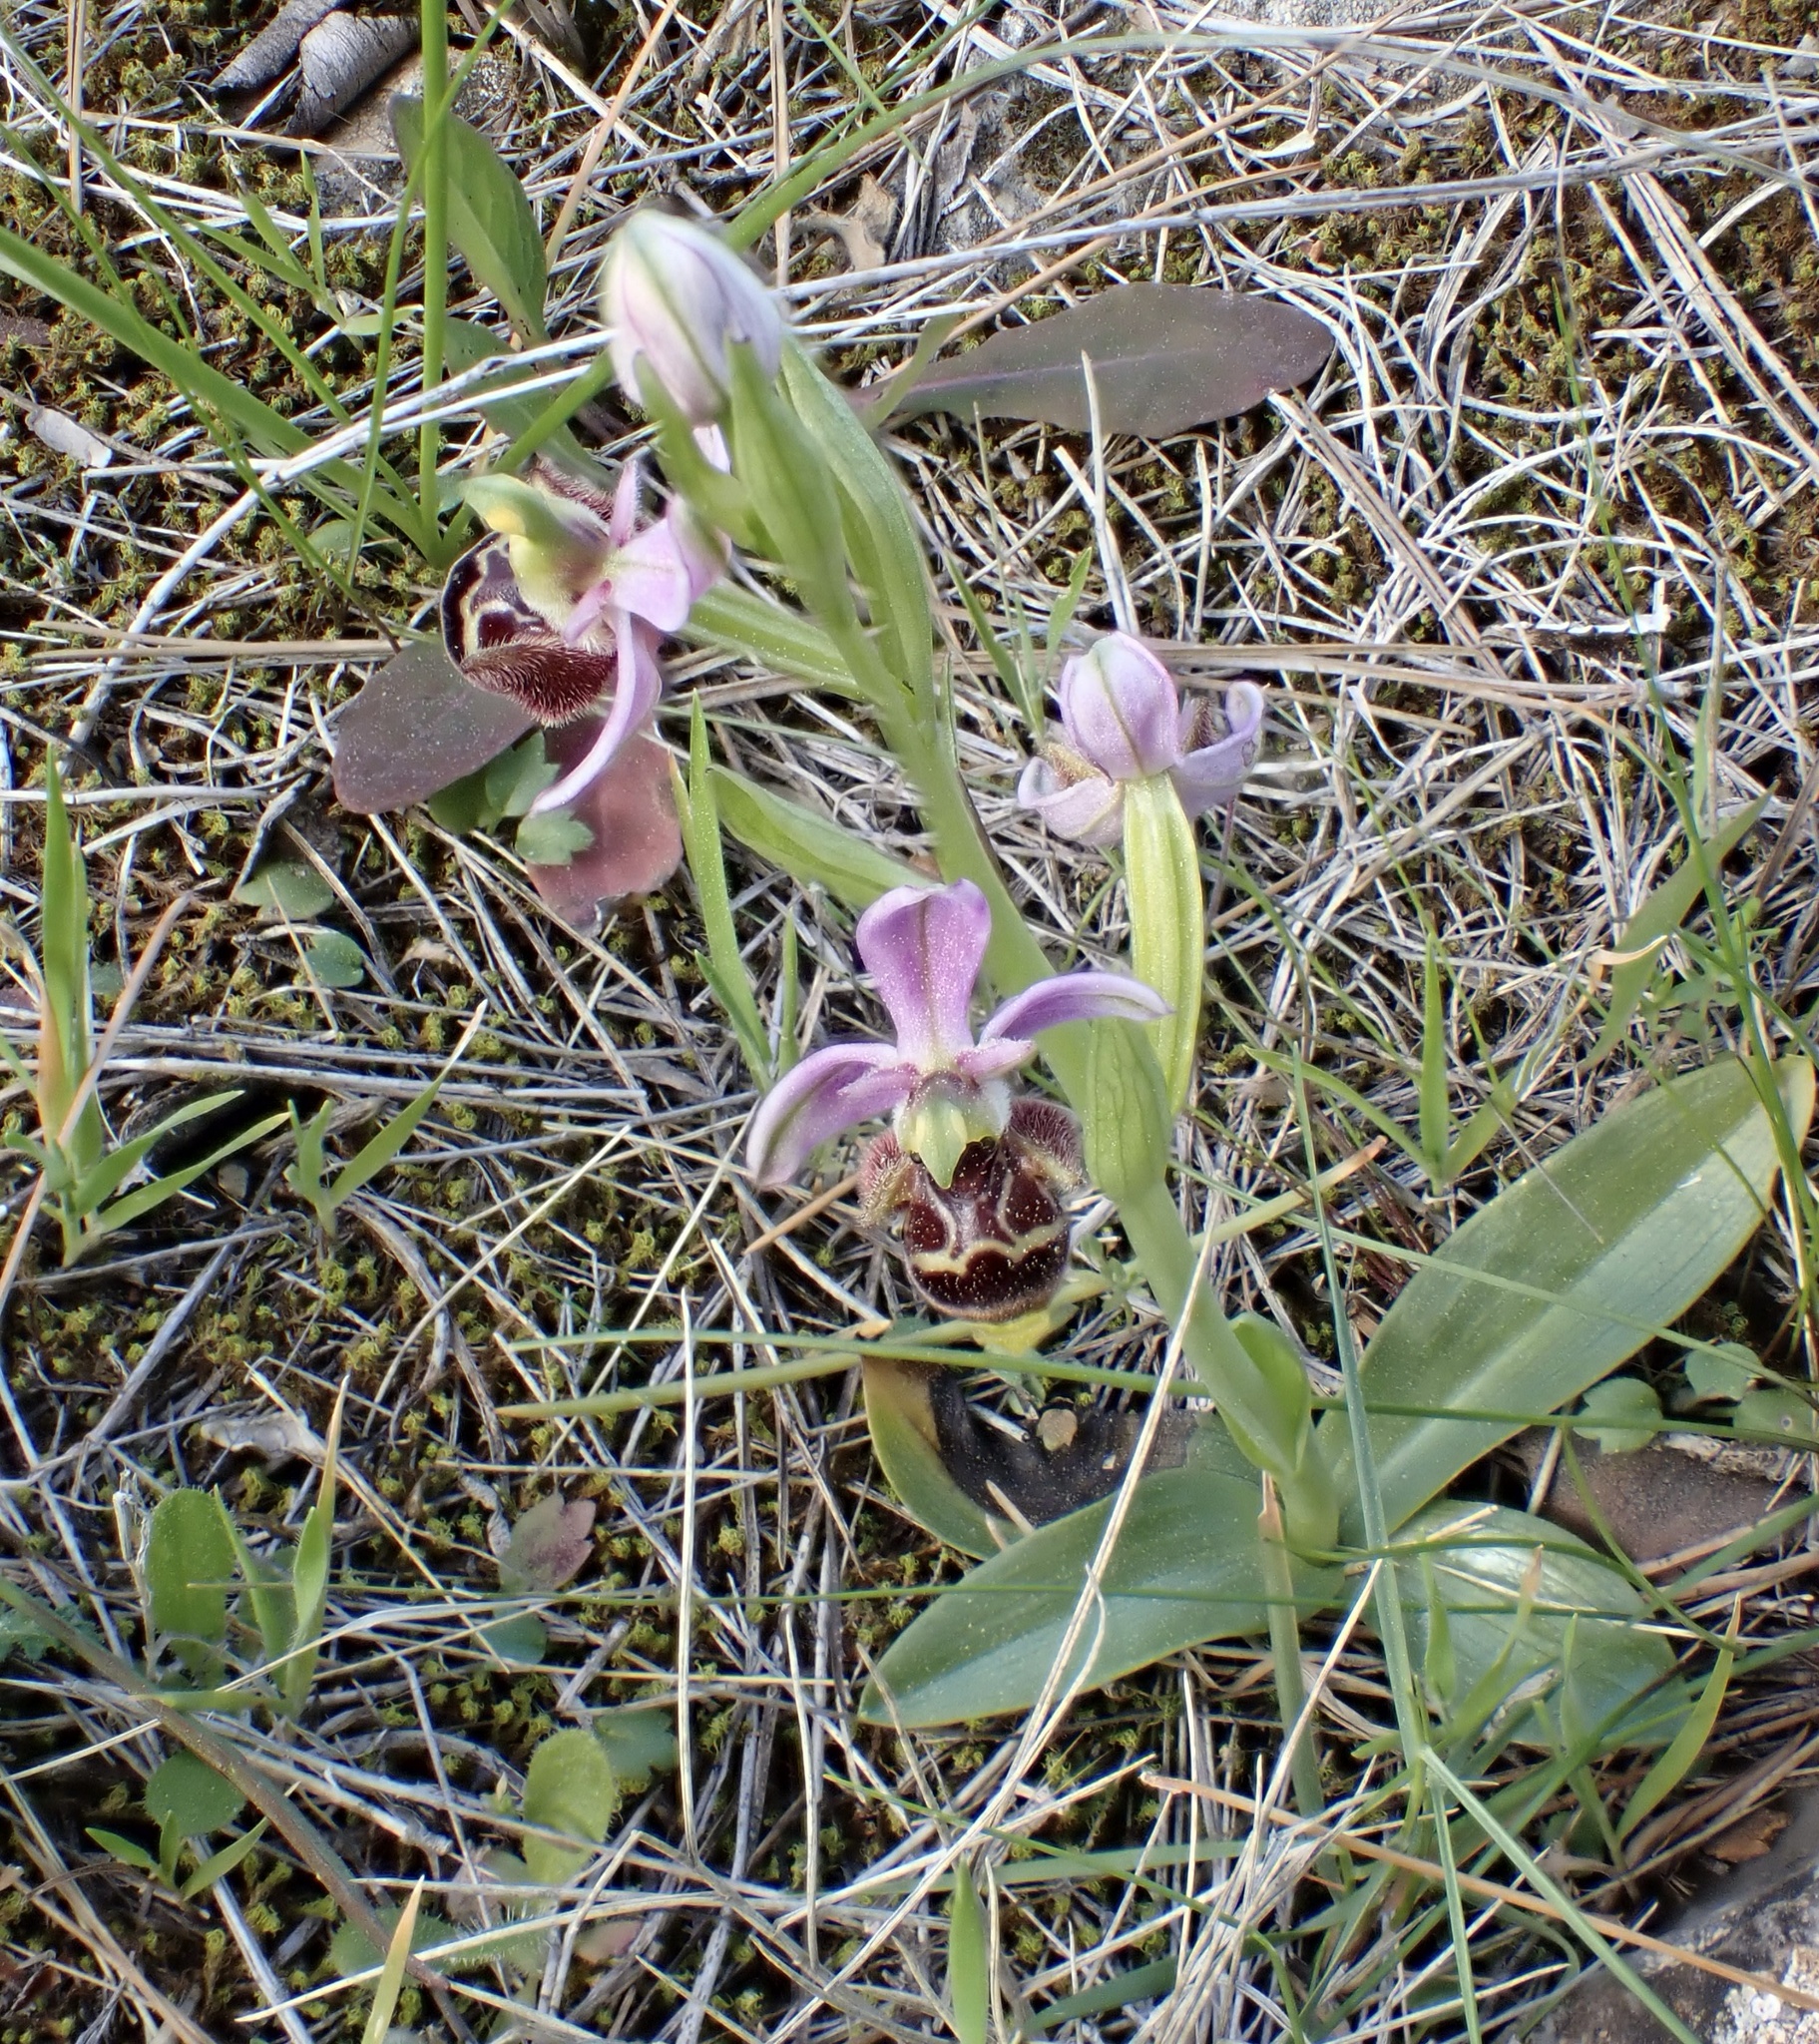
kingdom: Plantae
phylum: Tracheophyta
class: Liliopsida
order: Asparagales
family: Orchidaceae
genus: Ophrys
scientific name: Ophrys scolopax
